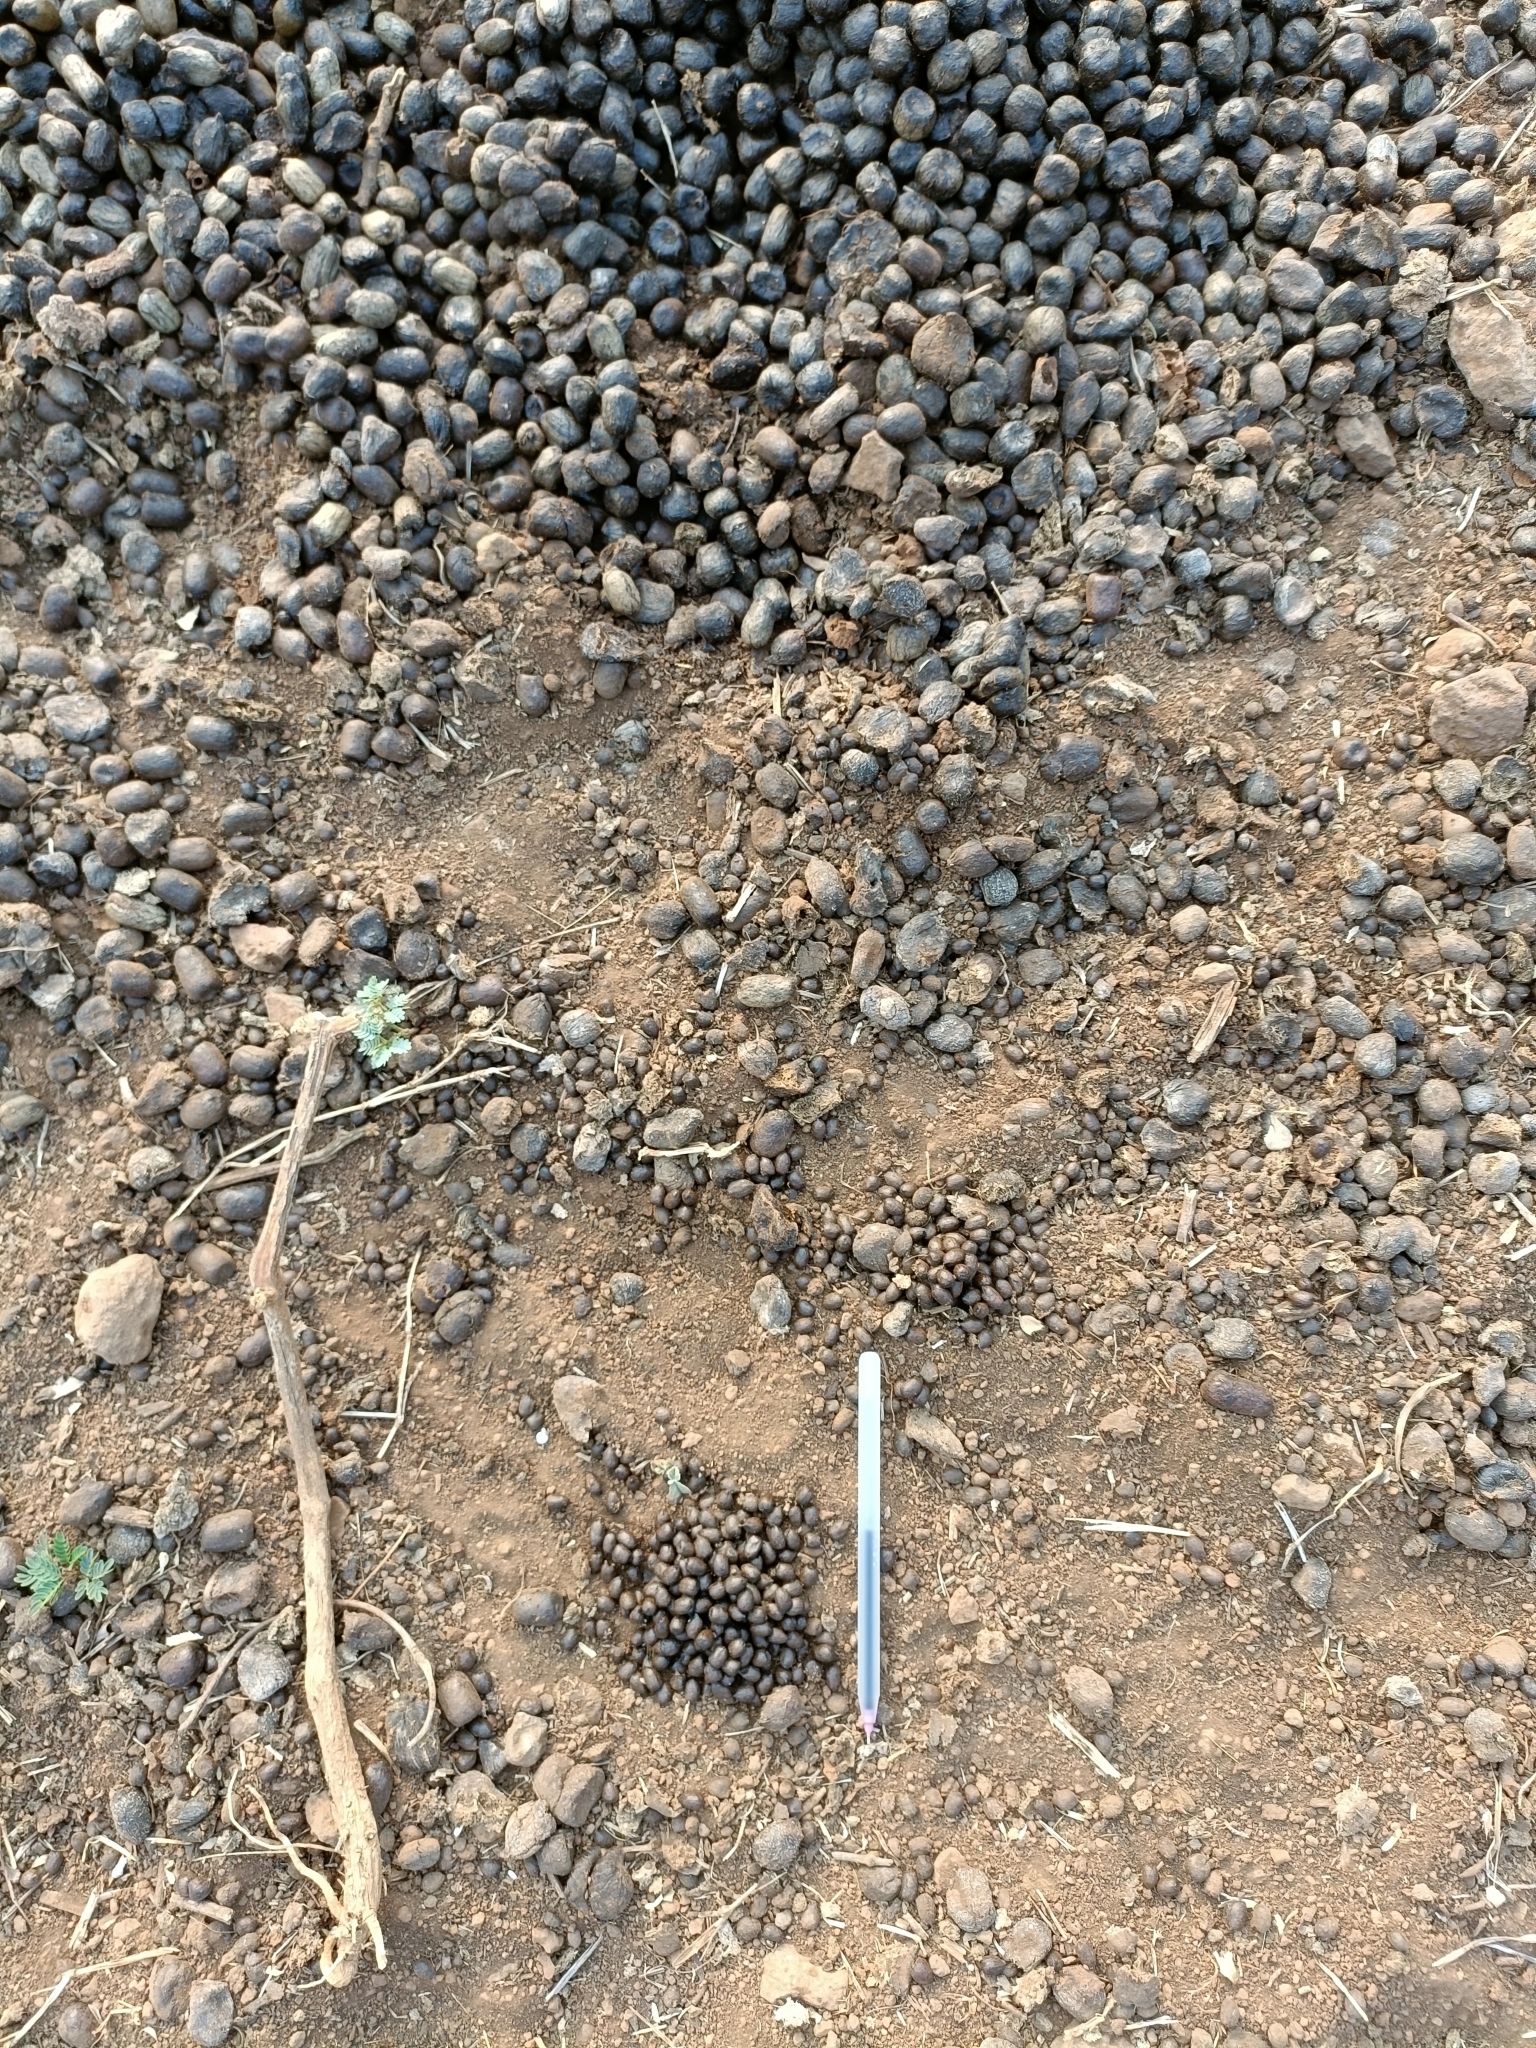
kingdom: Animalia
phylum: Chordata
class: Mammalia
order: Artiodactyla
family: Bovidae
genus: Gazella
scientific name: Gazella bennettii
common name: Indian gazelle
